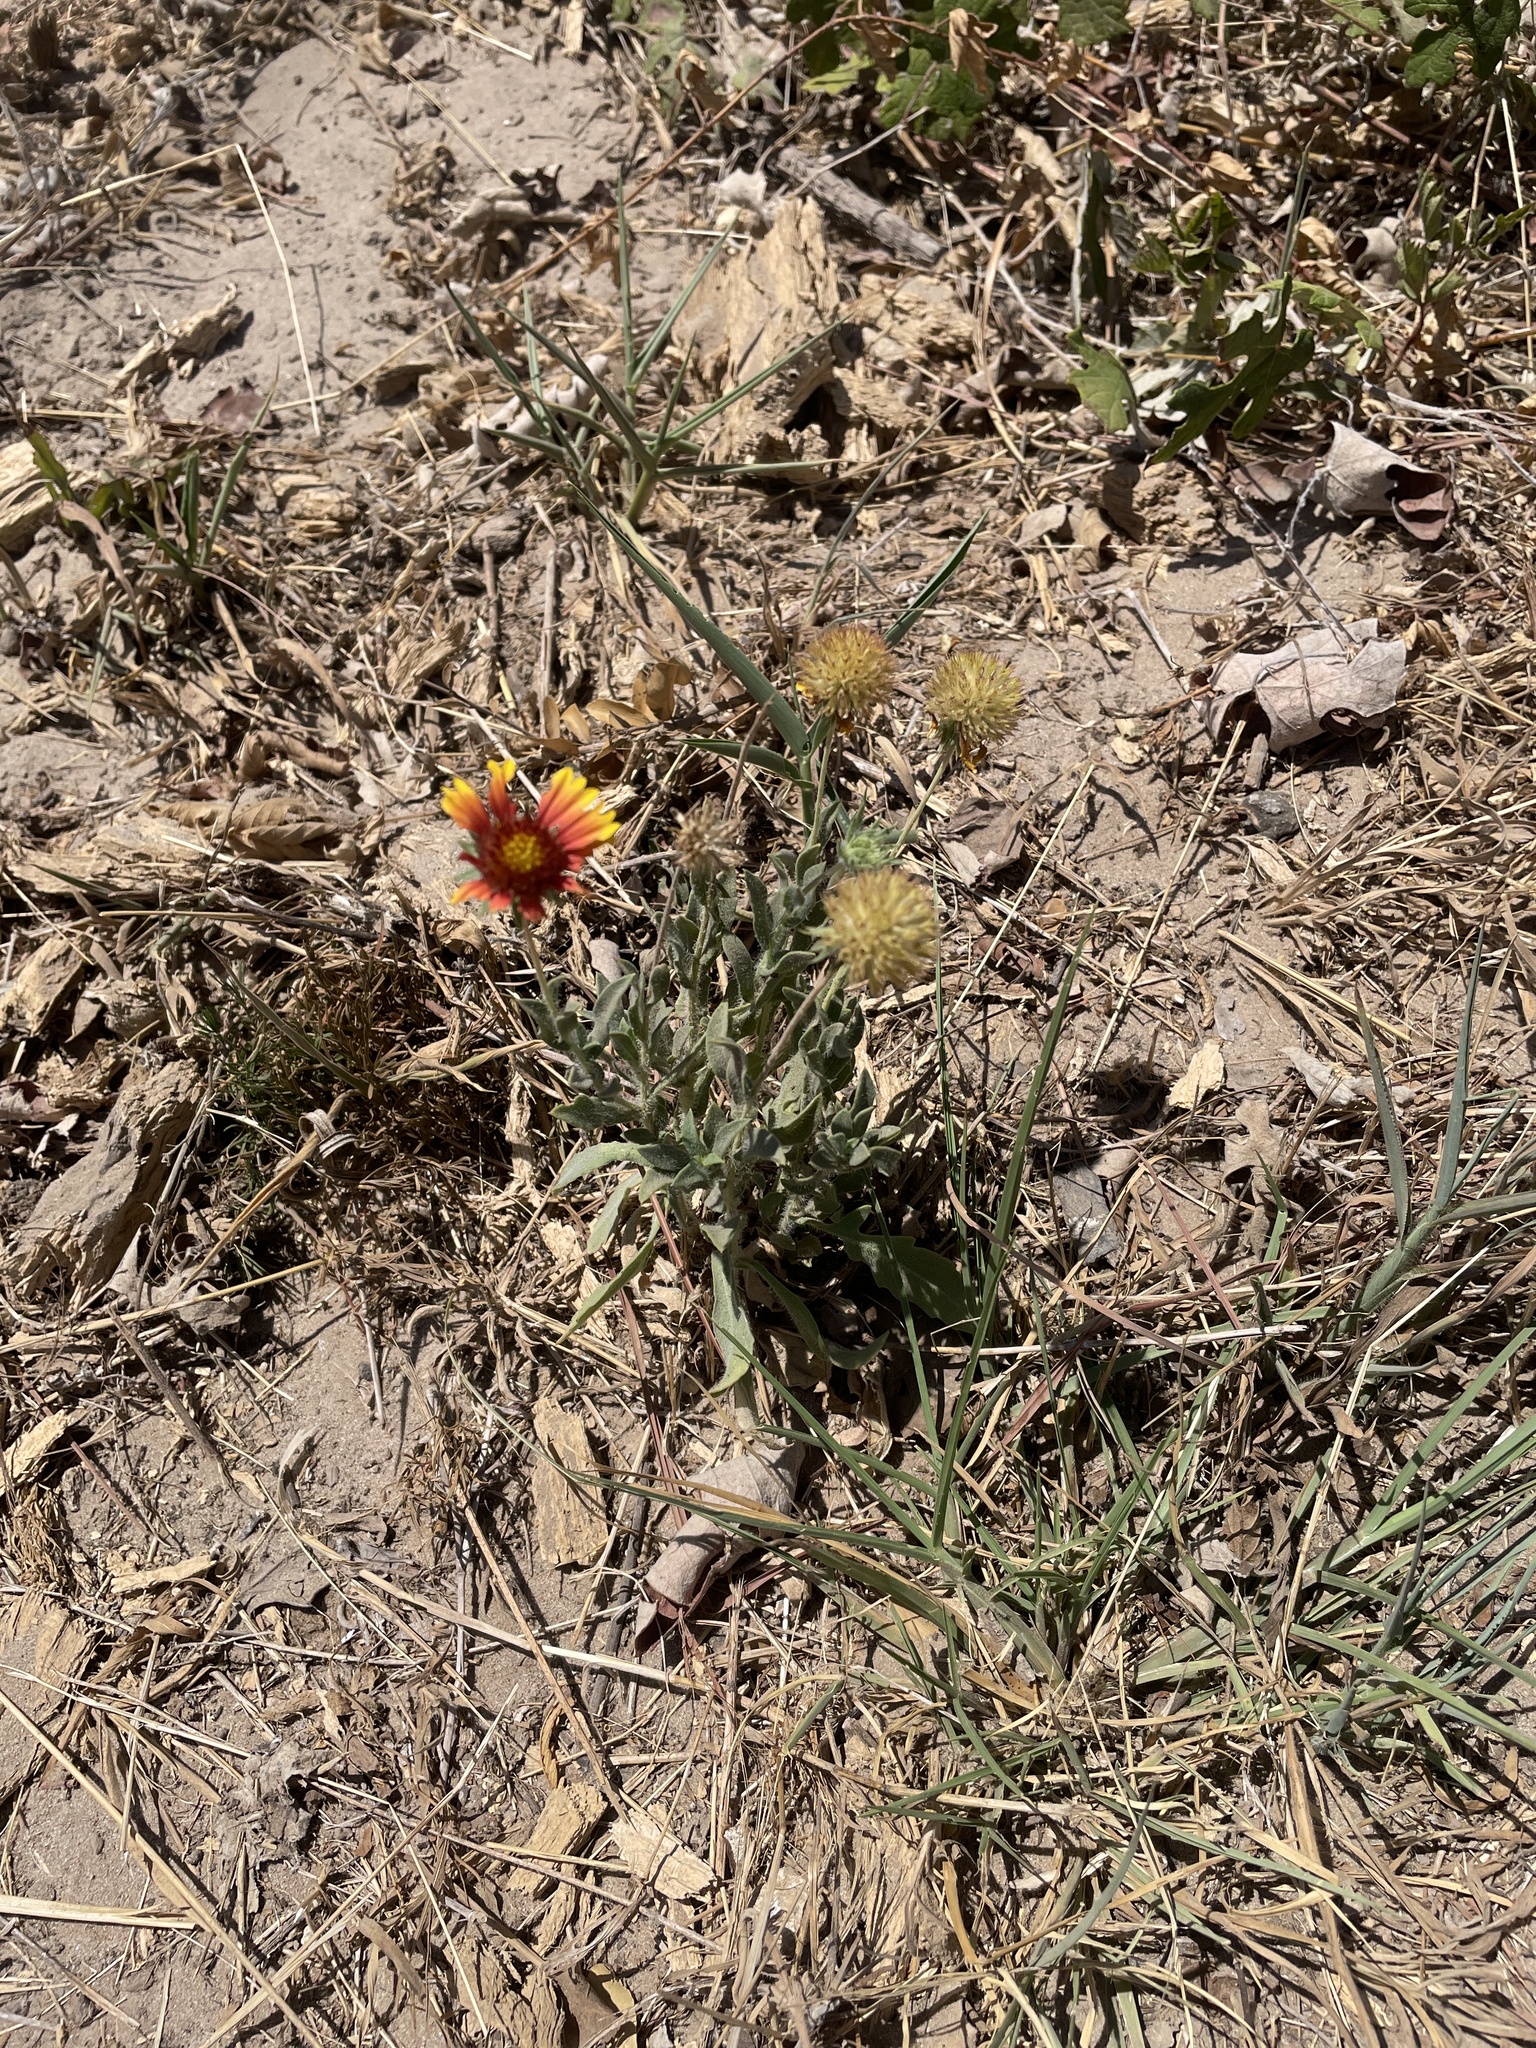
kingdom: Plantae
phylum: Tracheophyta
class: Magnoliopsida
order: Asterales
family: Asteraceae
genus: Gaillardia
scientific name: Gaillardia pulchella
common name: Firewheel
